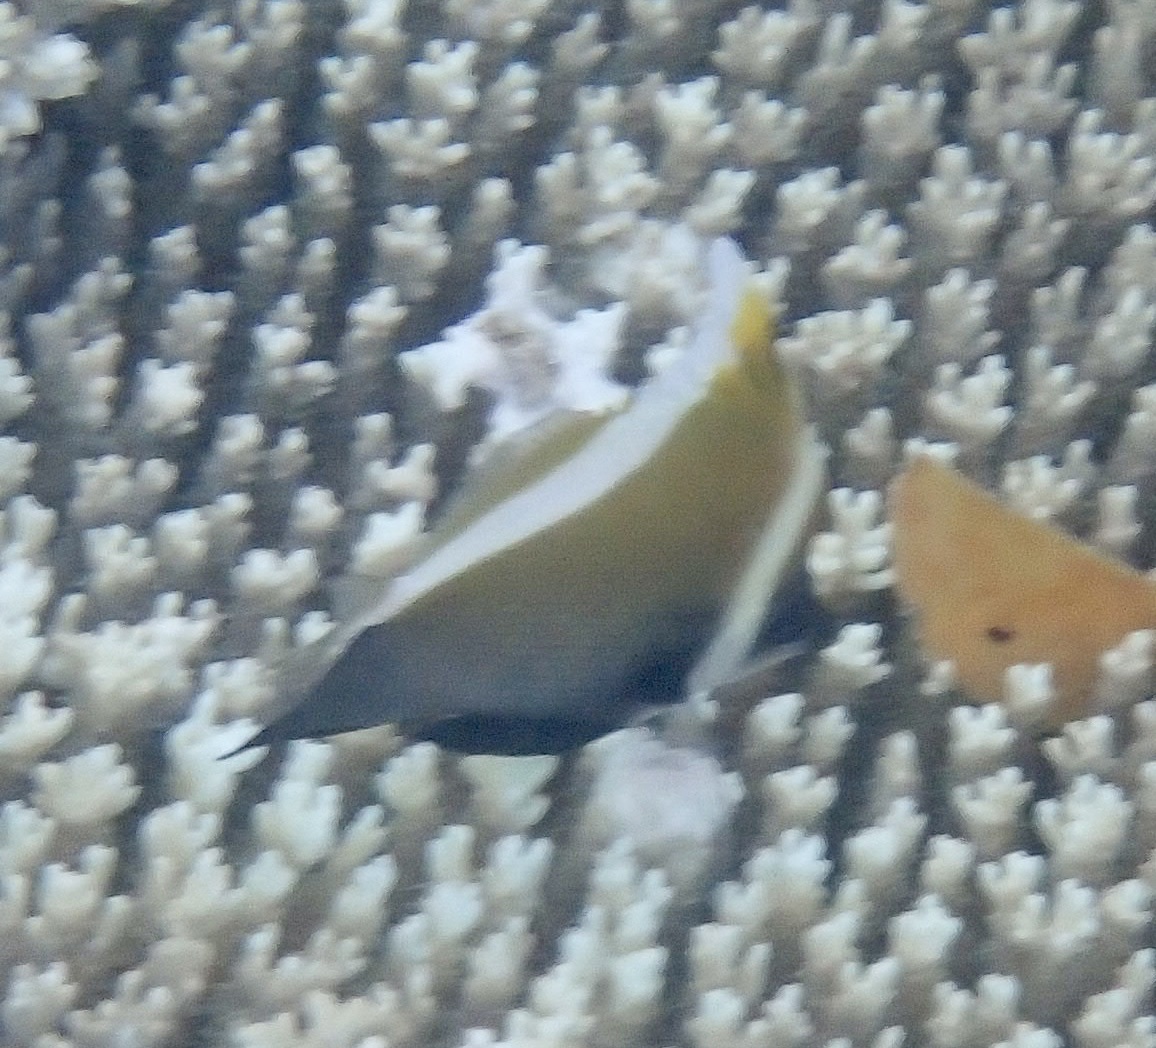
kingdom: Animalia
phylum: Chordata
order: Perciformes
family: Chaetodontidae
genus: Heniochus
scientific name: Heniochus varius
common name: Horned bannerfish
